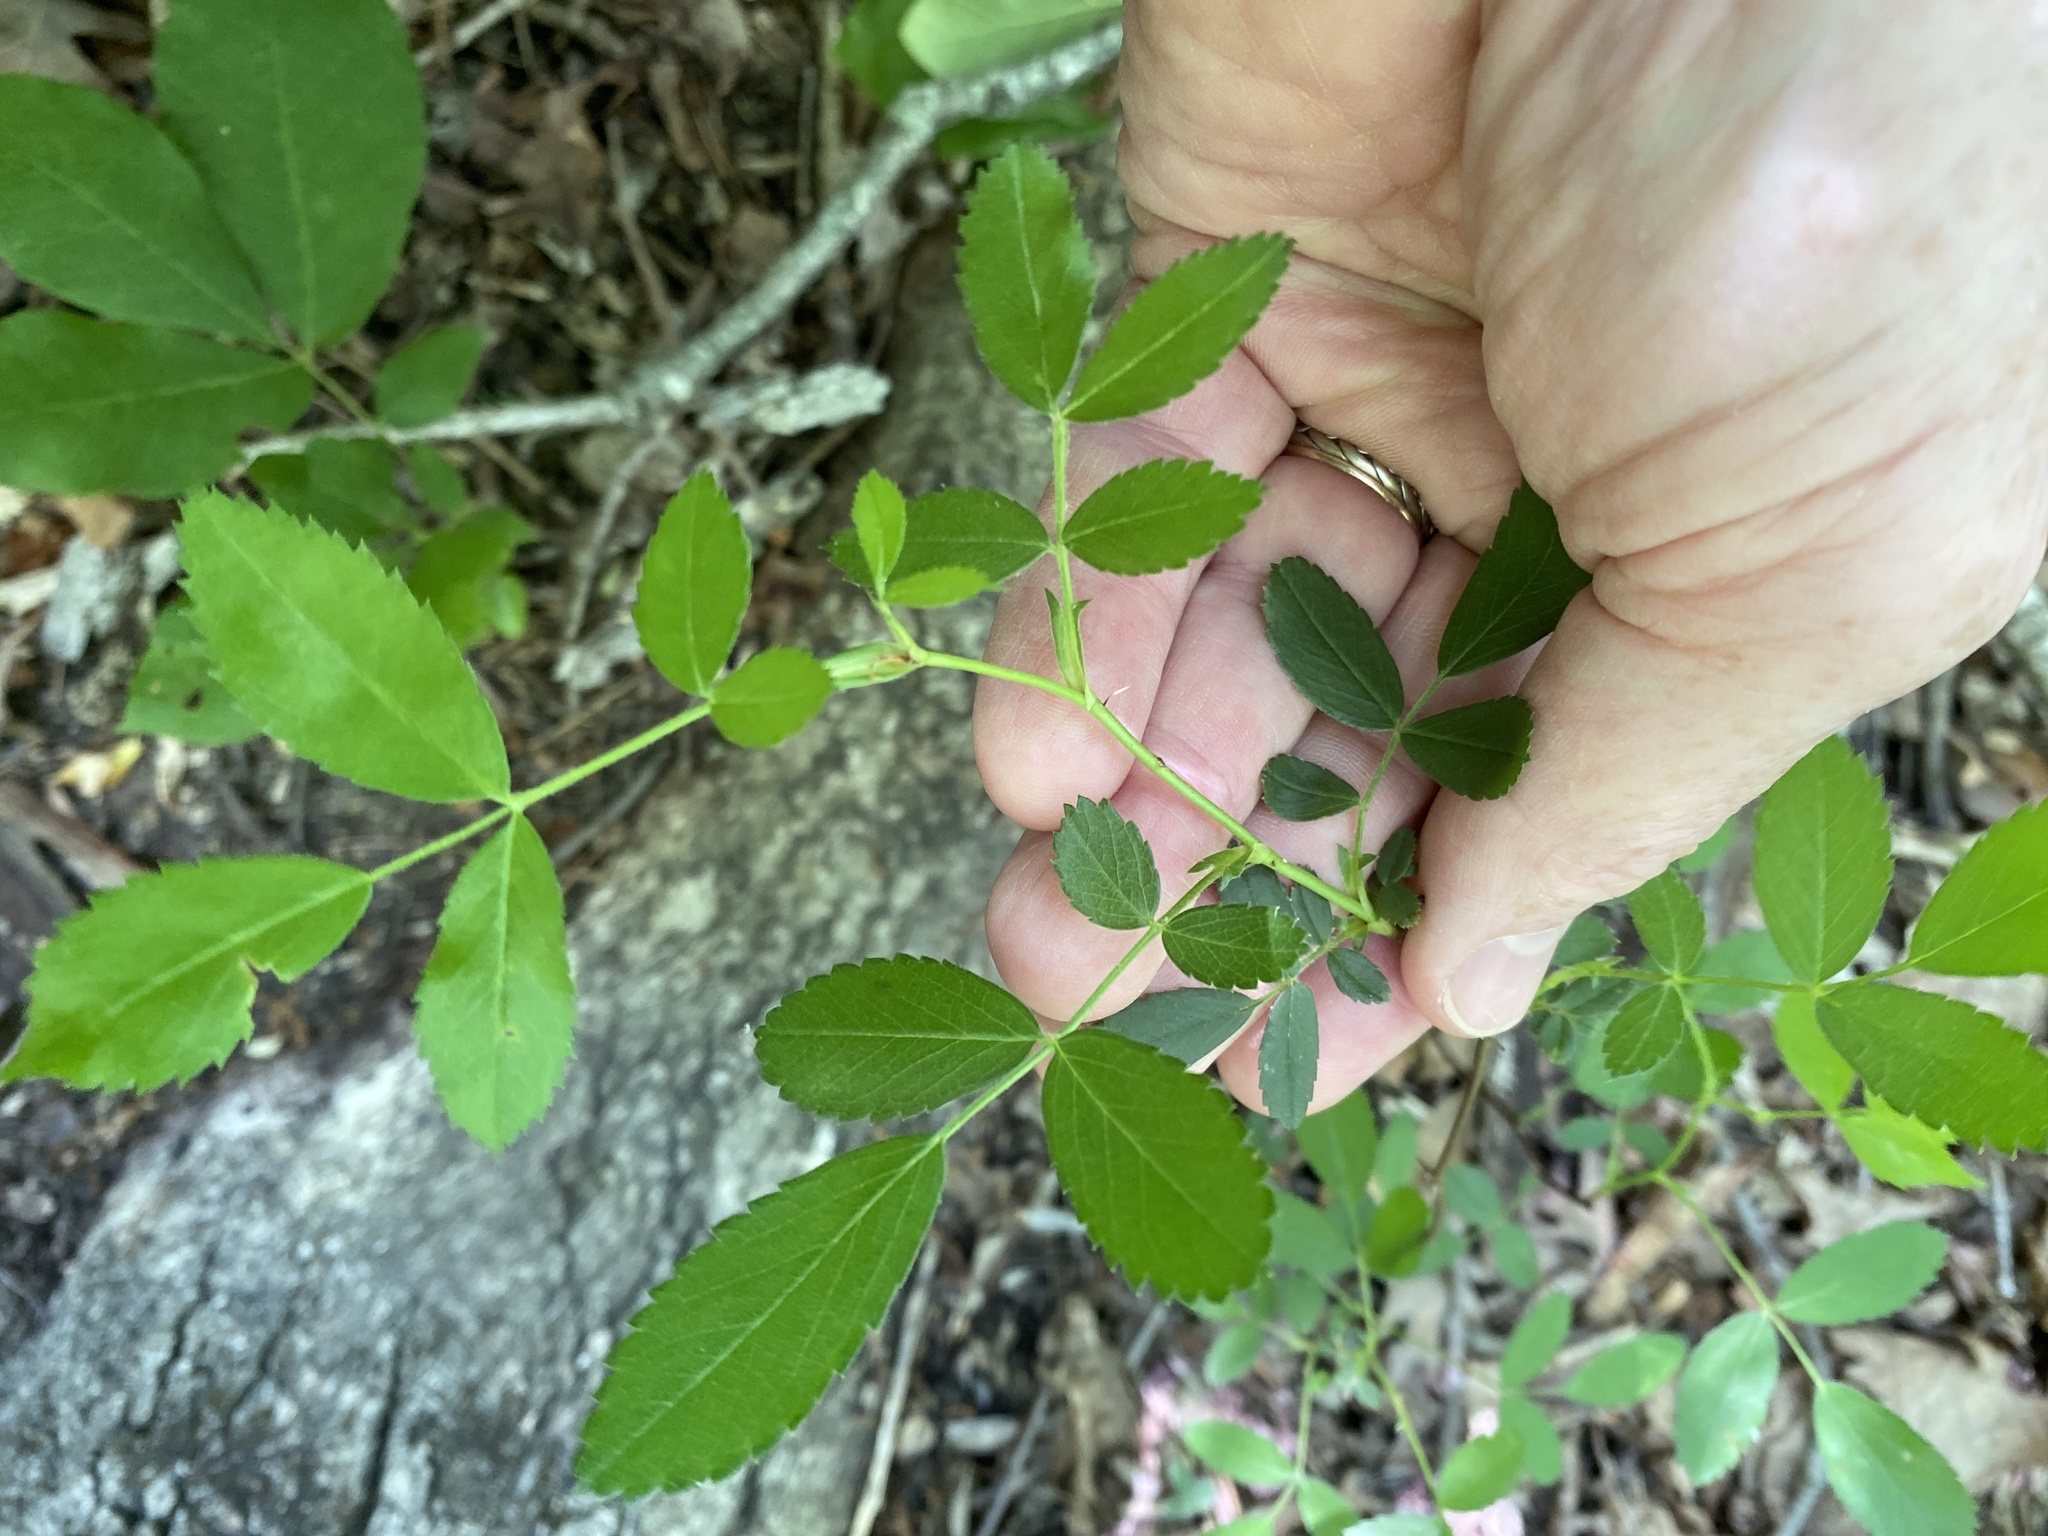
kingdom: Plantae
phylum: Tracheophyta
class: Magnoliopsida
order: Rosales
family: Rosaceae
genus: Rosa
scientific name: Rosa carolina
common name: Pasture rose
